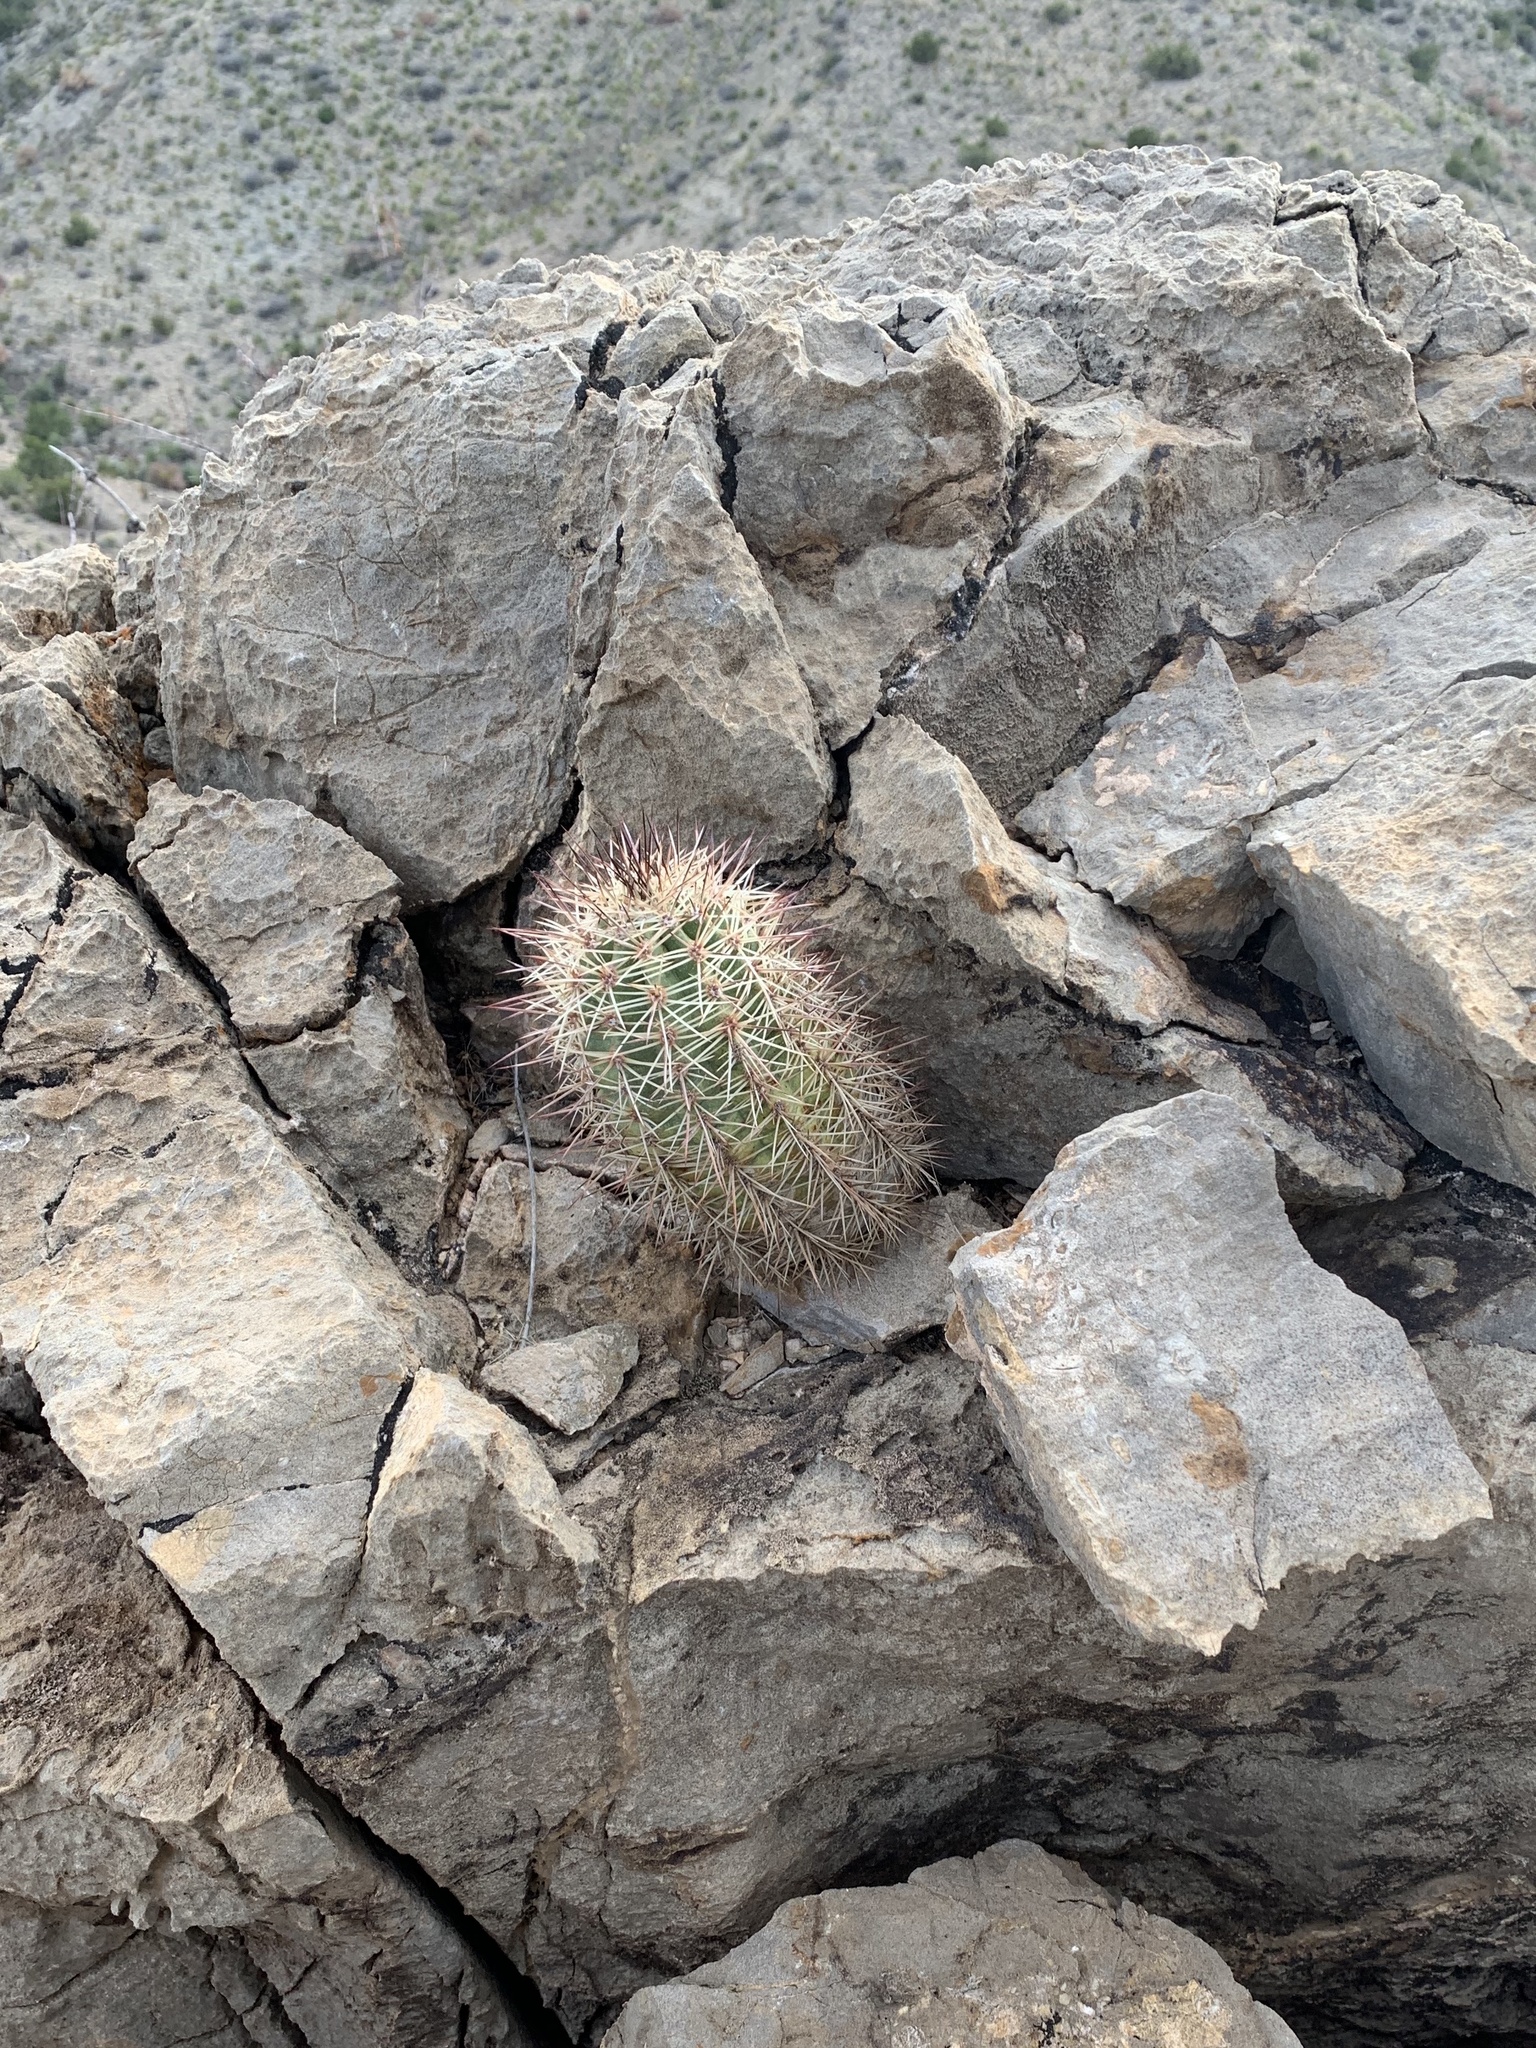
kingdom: Plantae
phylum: Tracheophyta
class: Magnoliopsida
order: Caryophyllales
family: Cactaceae
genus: Echinocereus
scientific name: Echinocereus coccineus
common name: Scarlet hedgehog cactus
